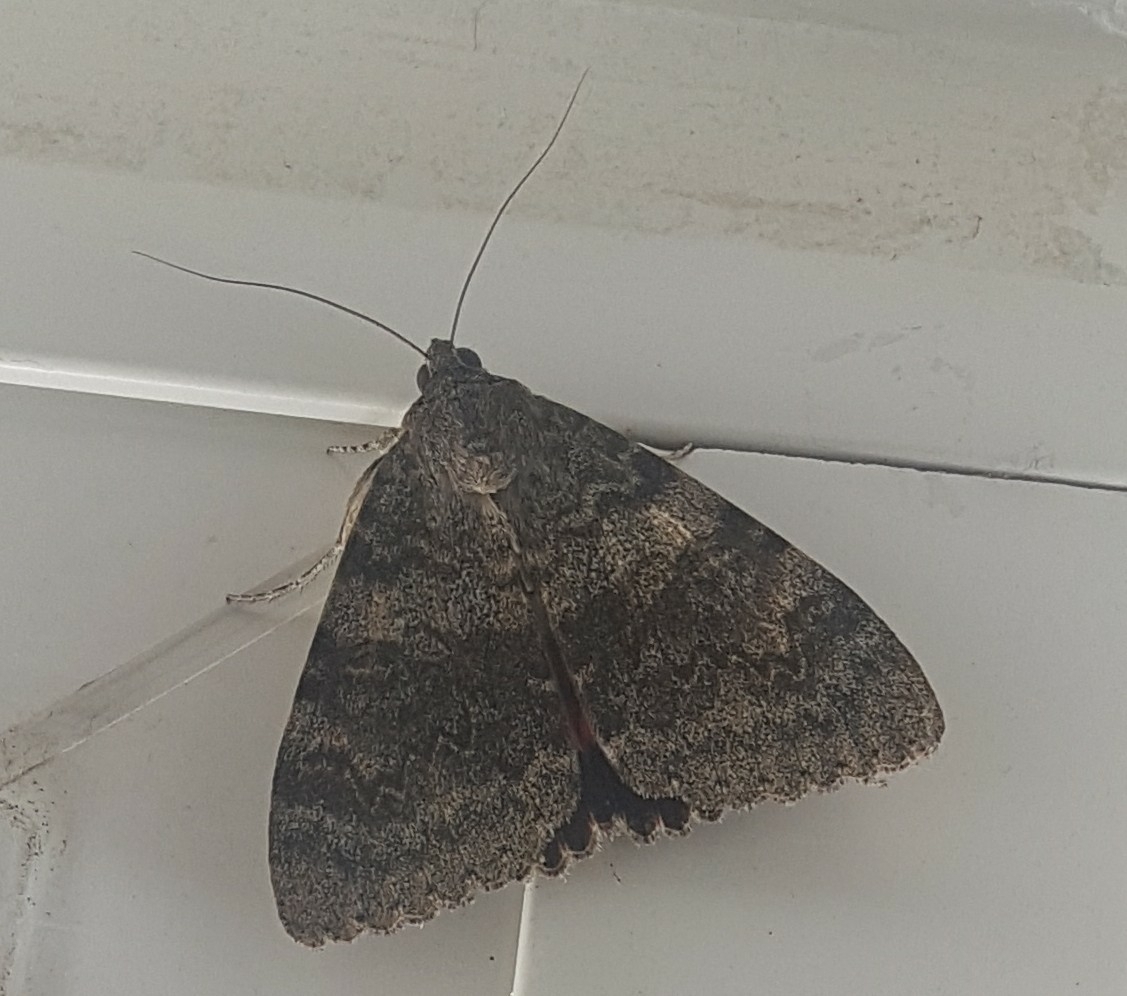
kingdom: Animalia
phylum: Arthropoda
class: Insecta
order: Lepidoptera
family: Erebidae
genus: Catocala
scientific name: Catocala elocata
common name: French red underwing
